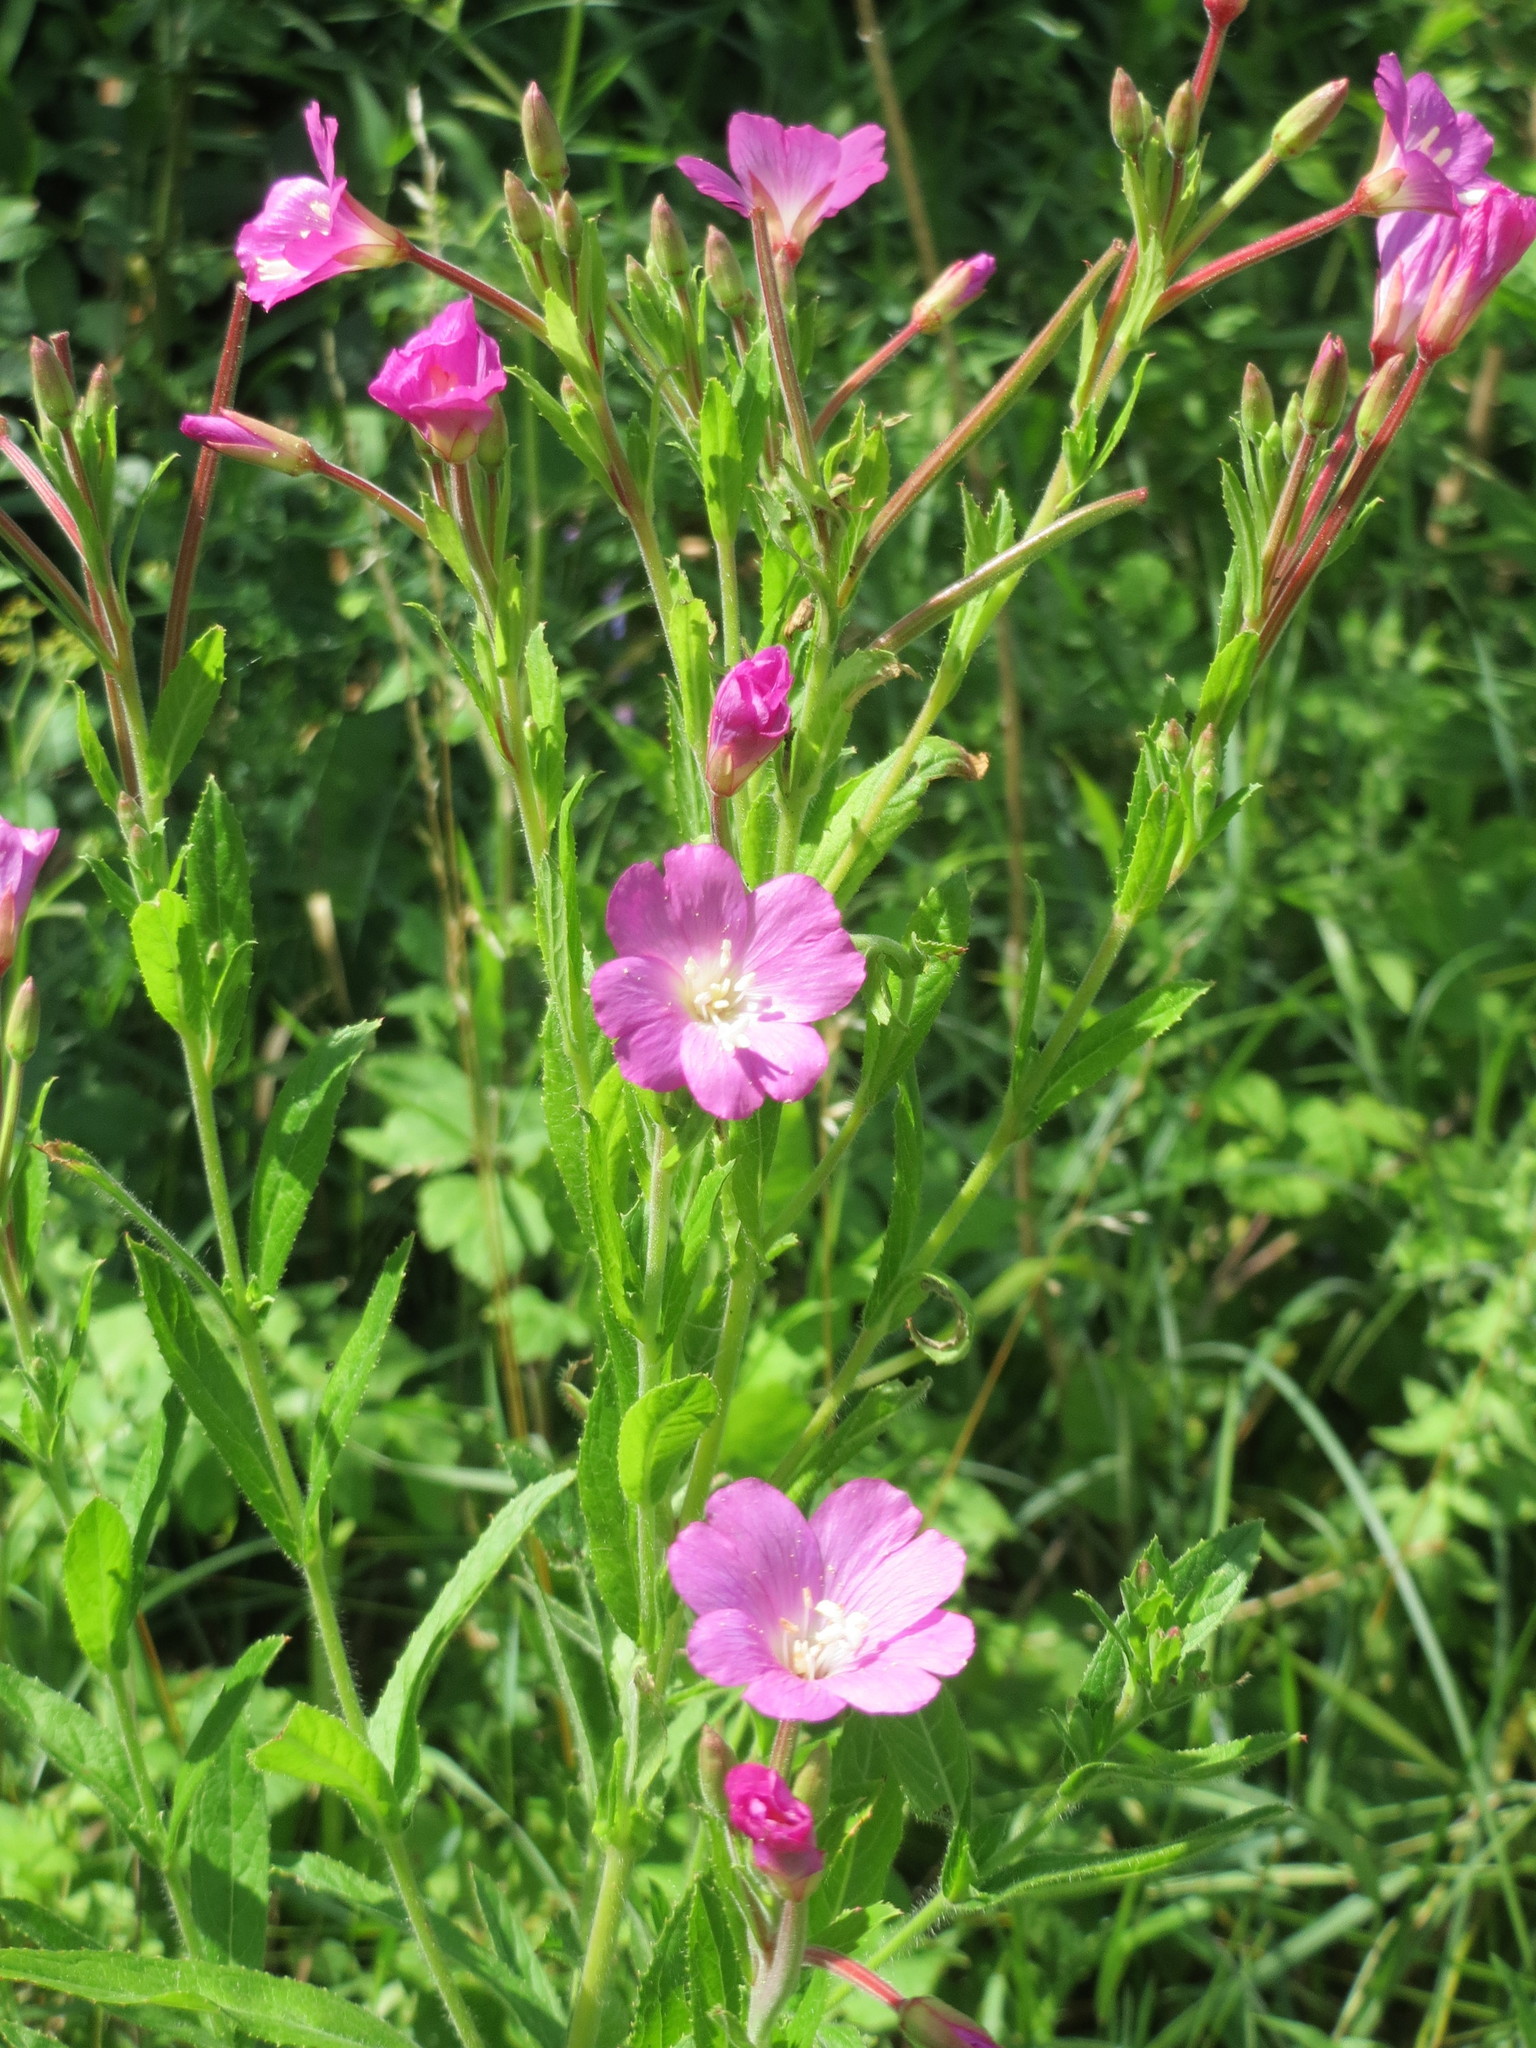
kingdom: Plantae
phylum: Tracheophyta
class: Magnoliopsida
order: Myrtales
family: Onagraceae
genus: Epilobium
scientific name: Epilobium hirsutum
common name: Great willowherb
